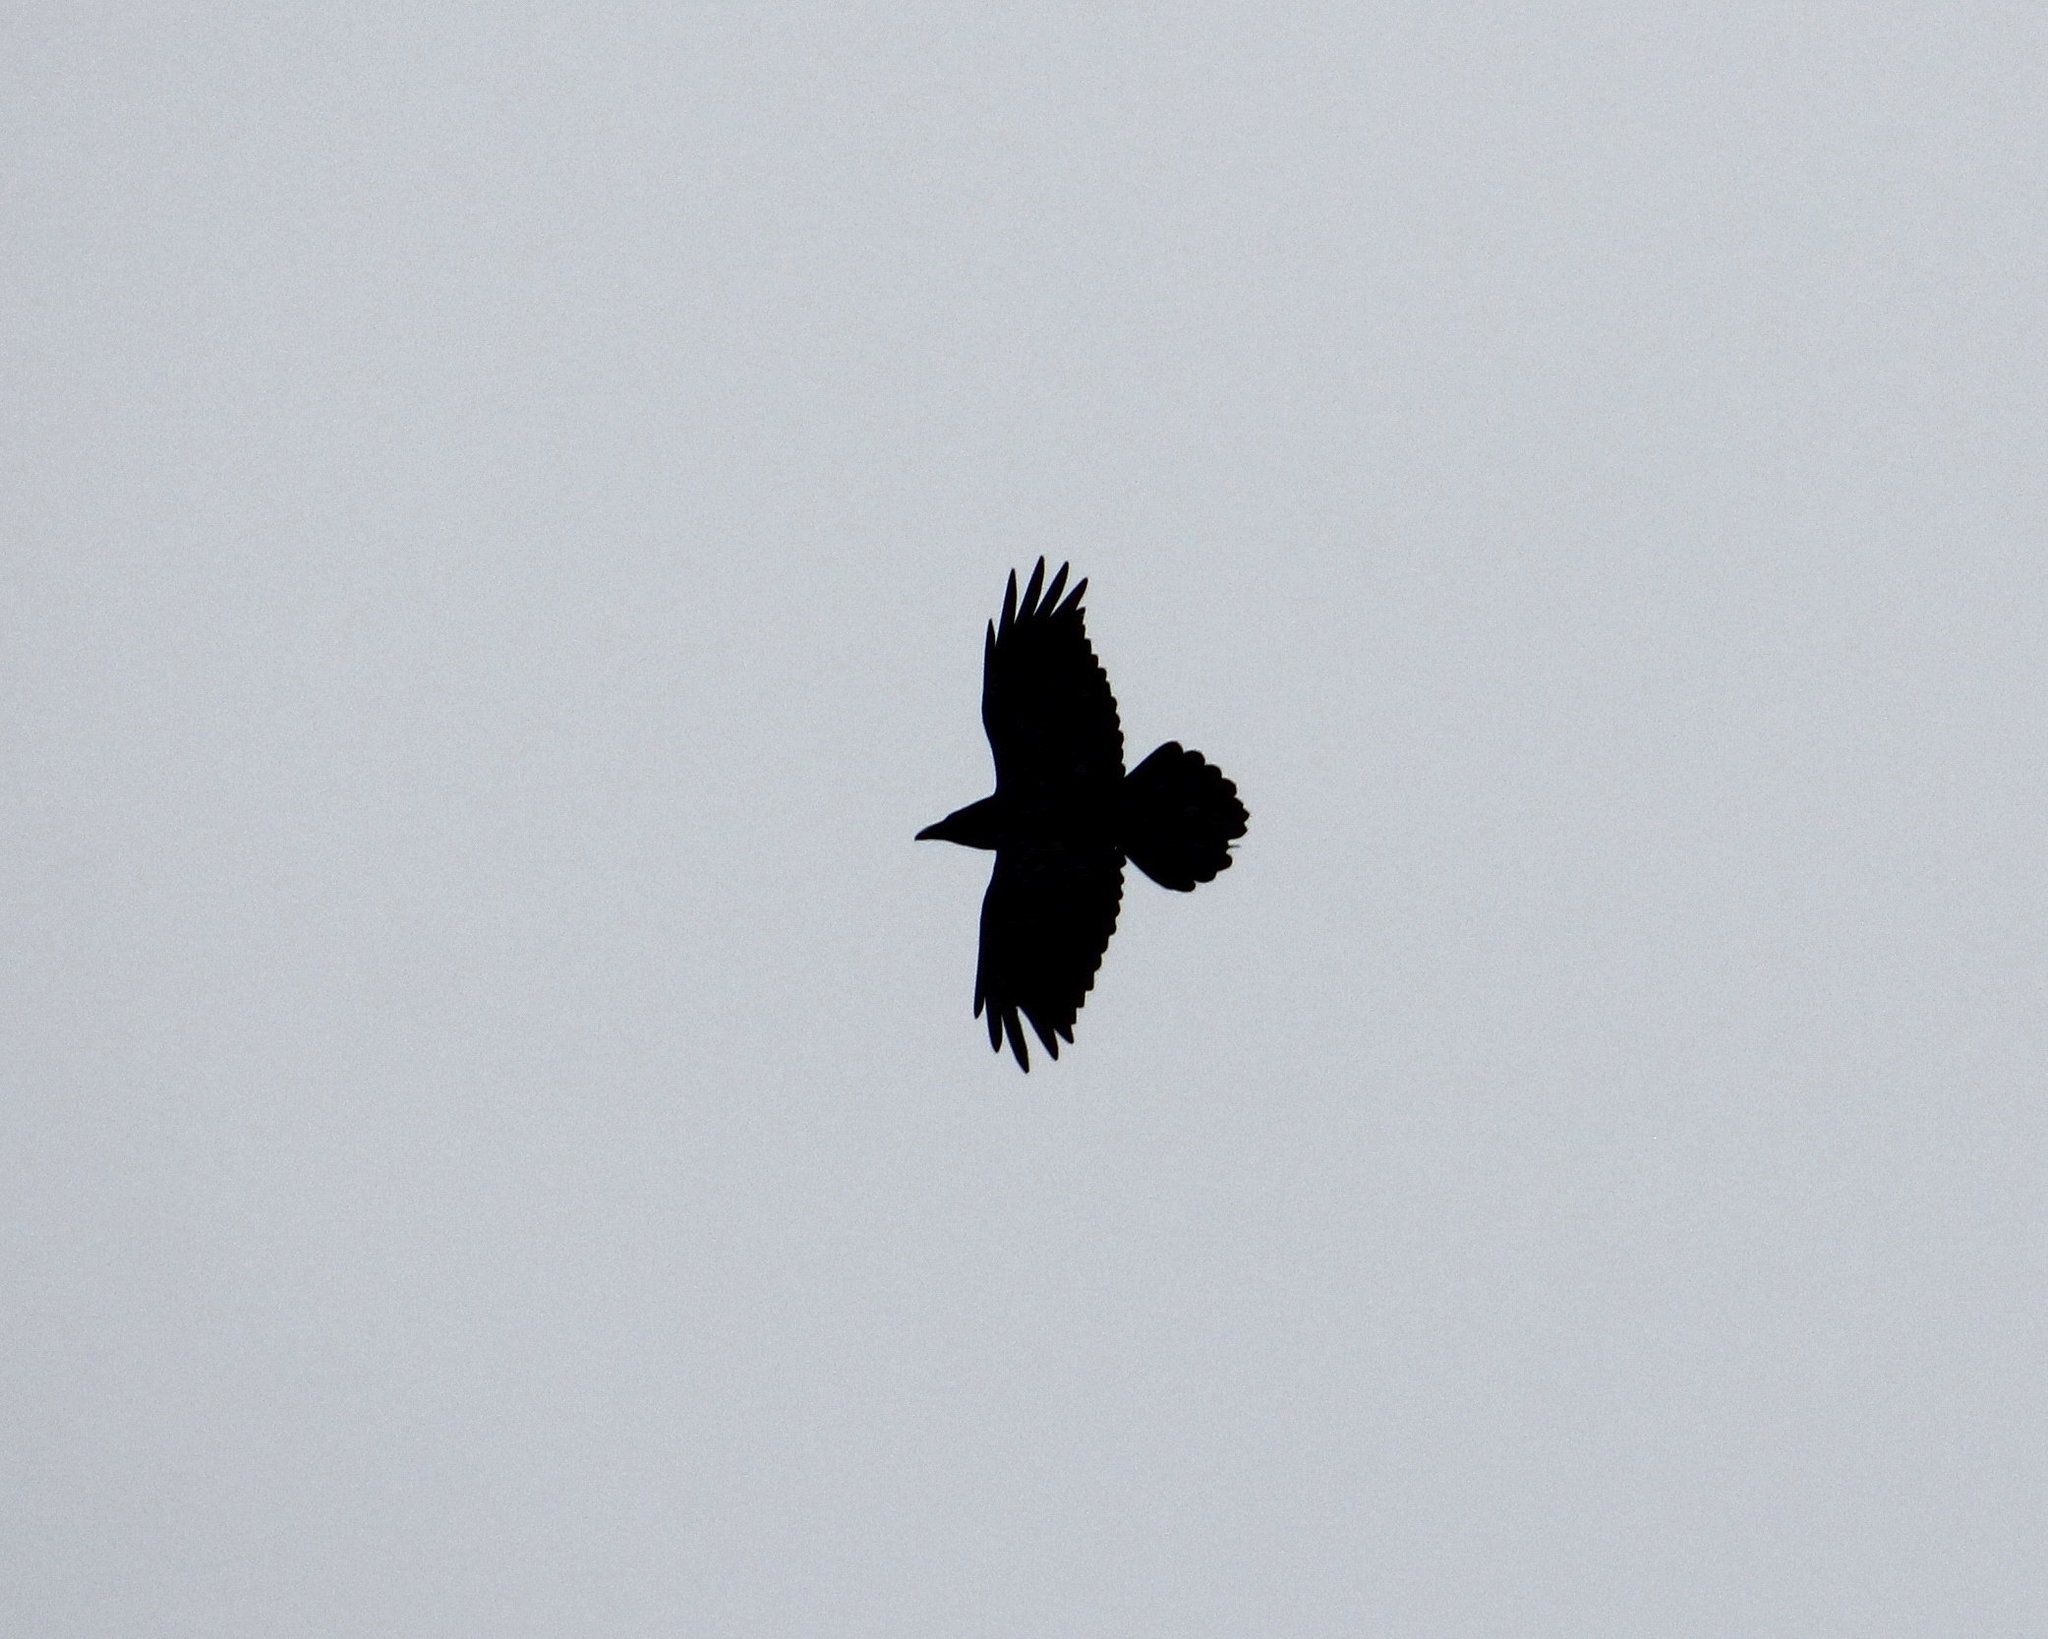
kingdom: Animalia
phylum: Chordata
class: Aves
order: Passeriformes
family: Corvidae
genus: Corvus
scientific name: Corvus corax
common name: Common raven
